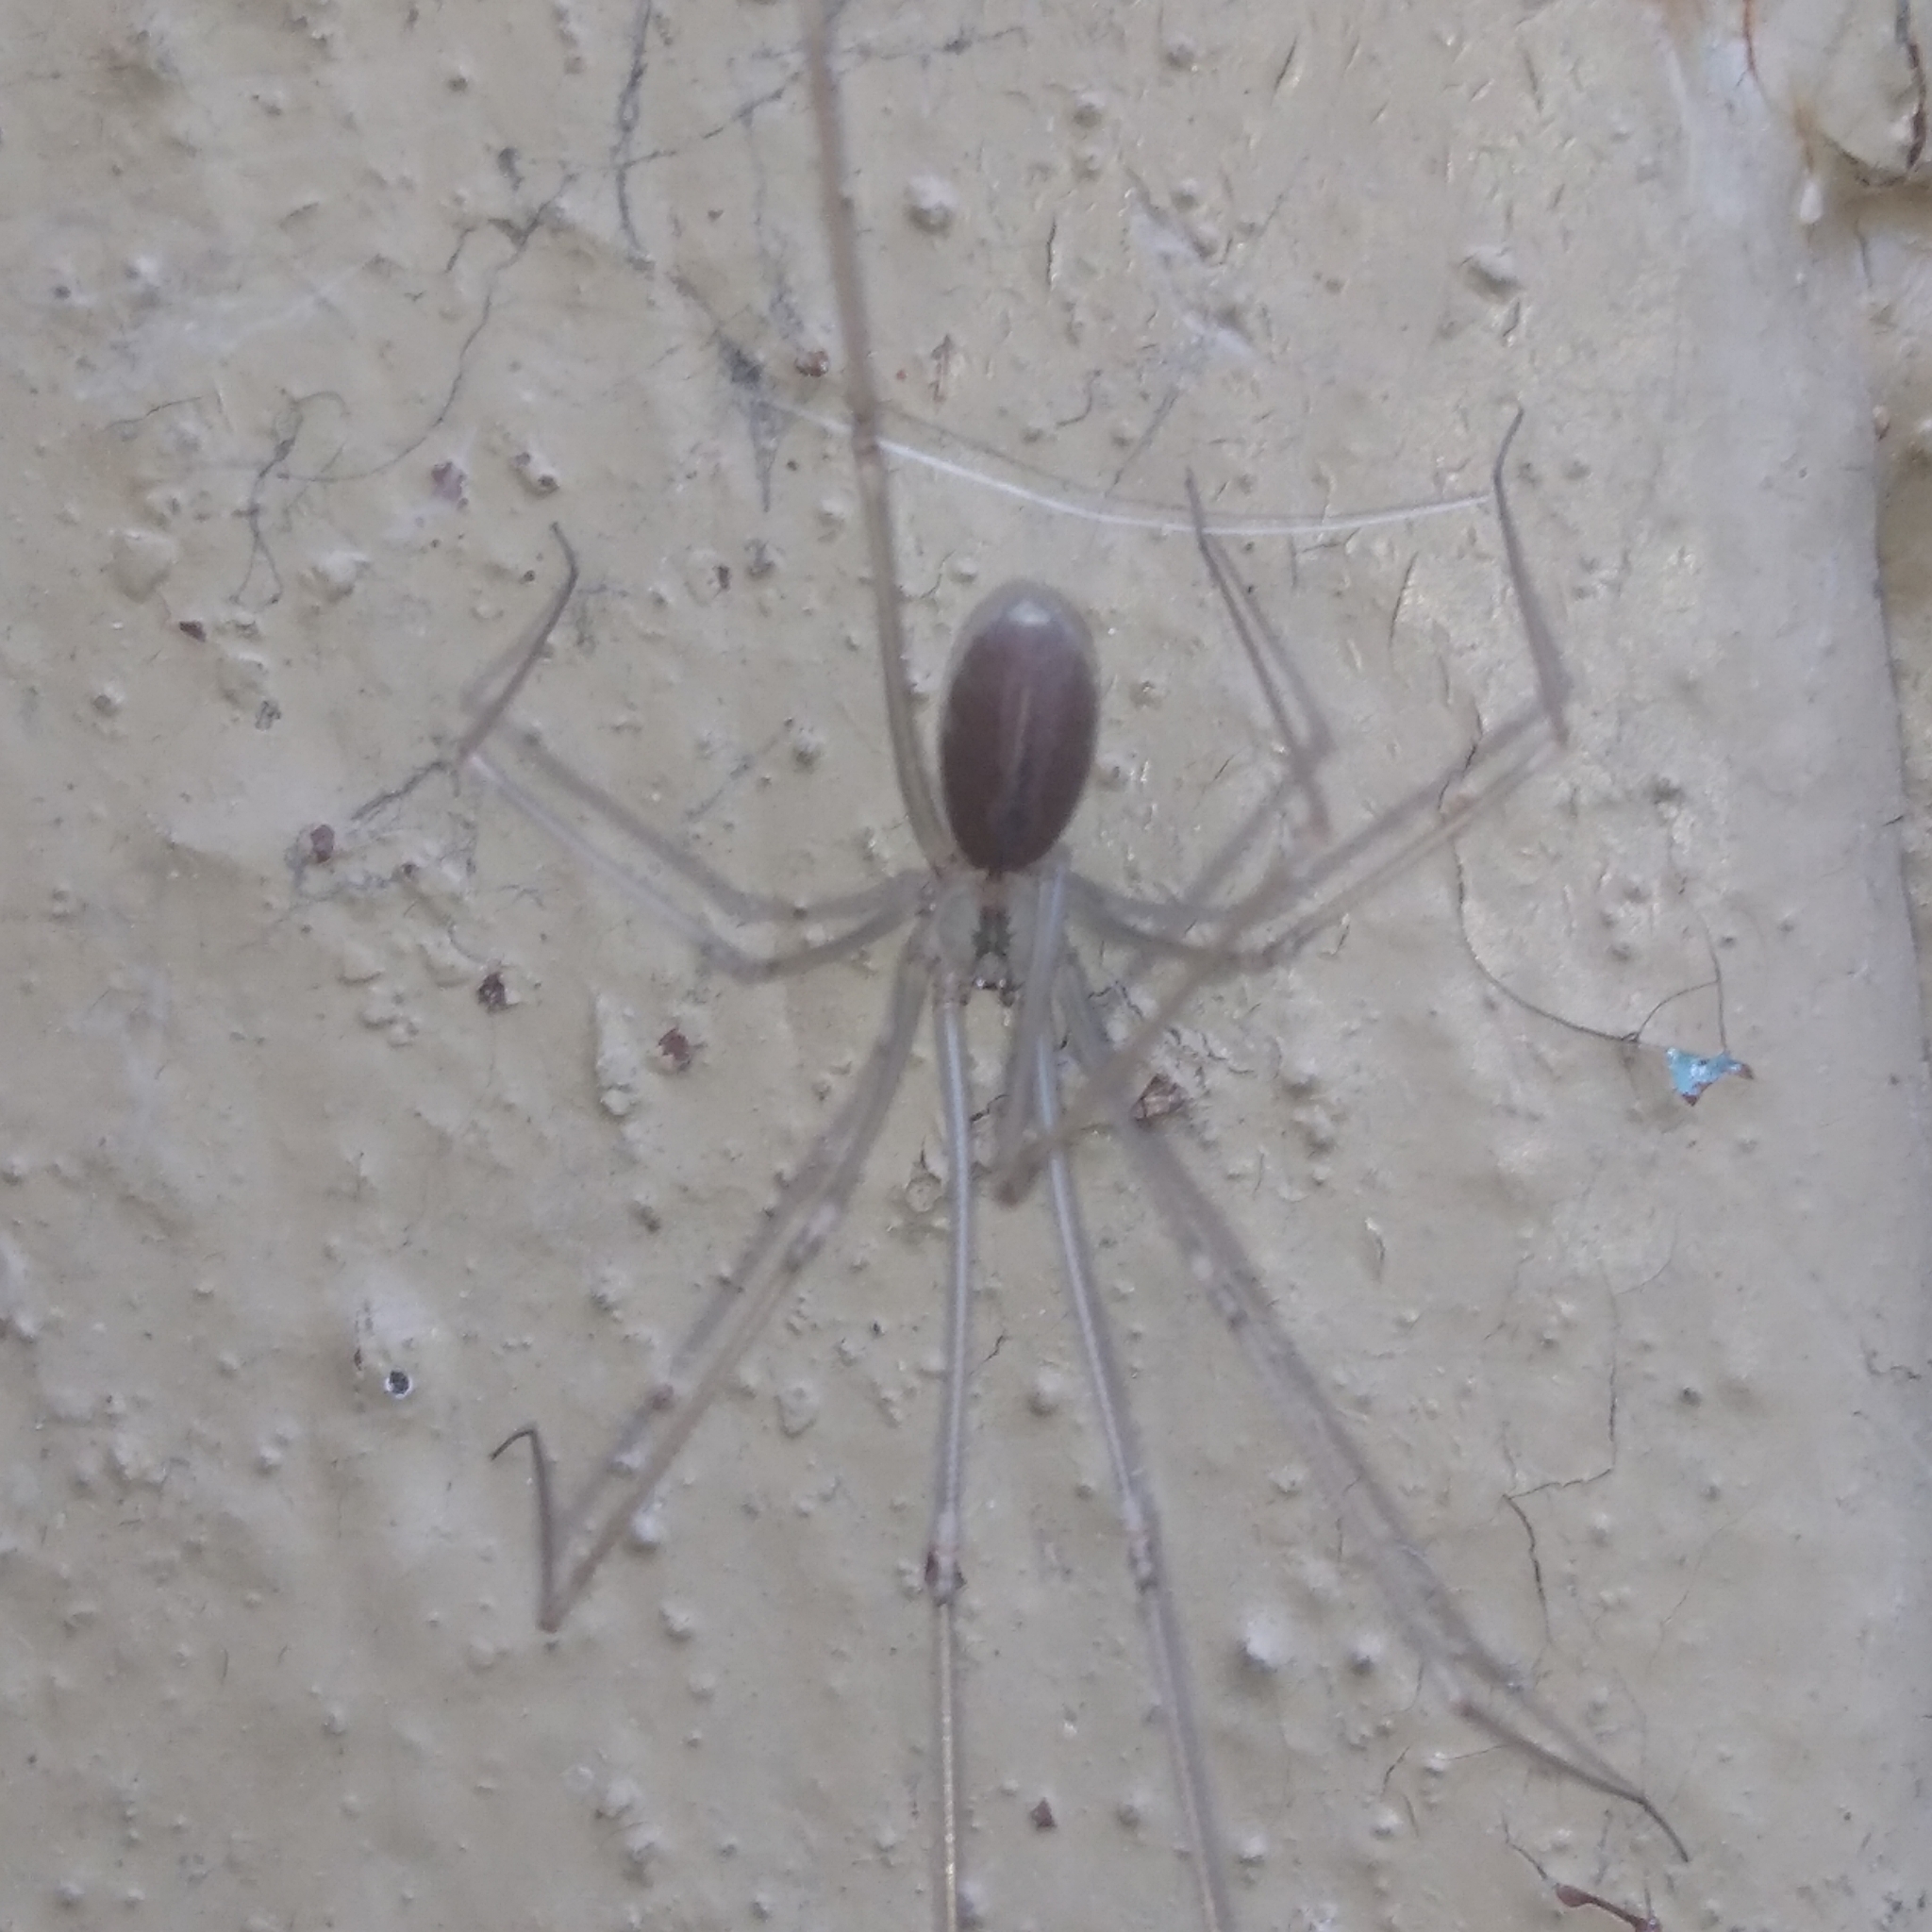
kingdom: Animalia
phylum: Arthropoda
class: Arachnida
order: Araneae
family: Pholcidae
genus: Pholcus
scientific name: Pholcus ponticus
